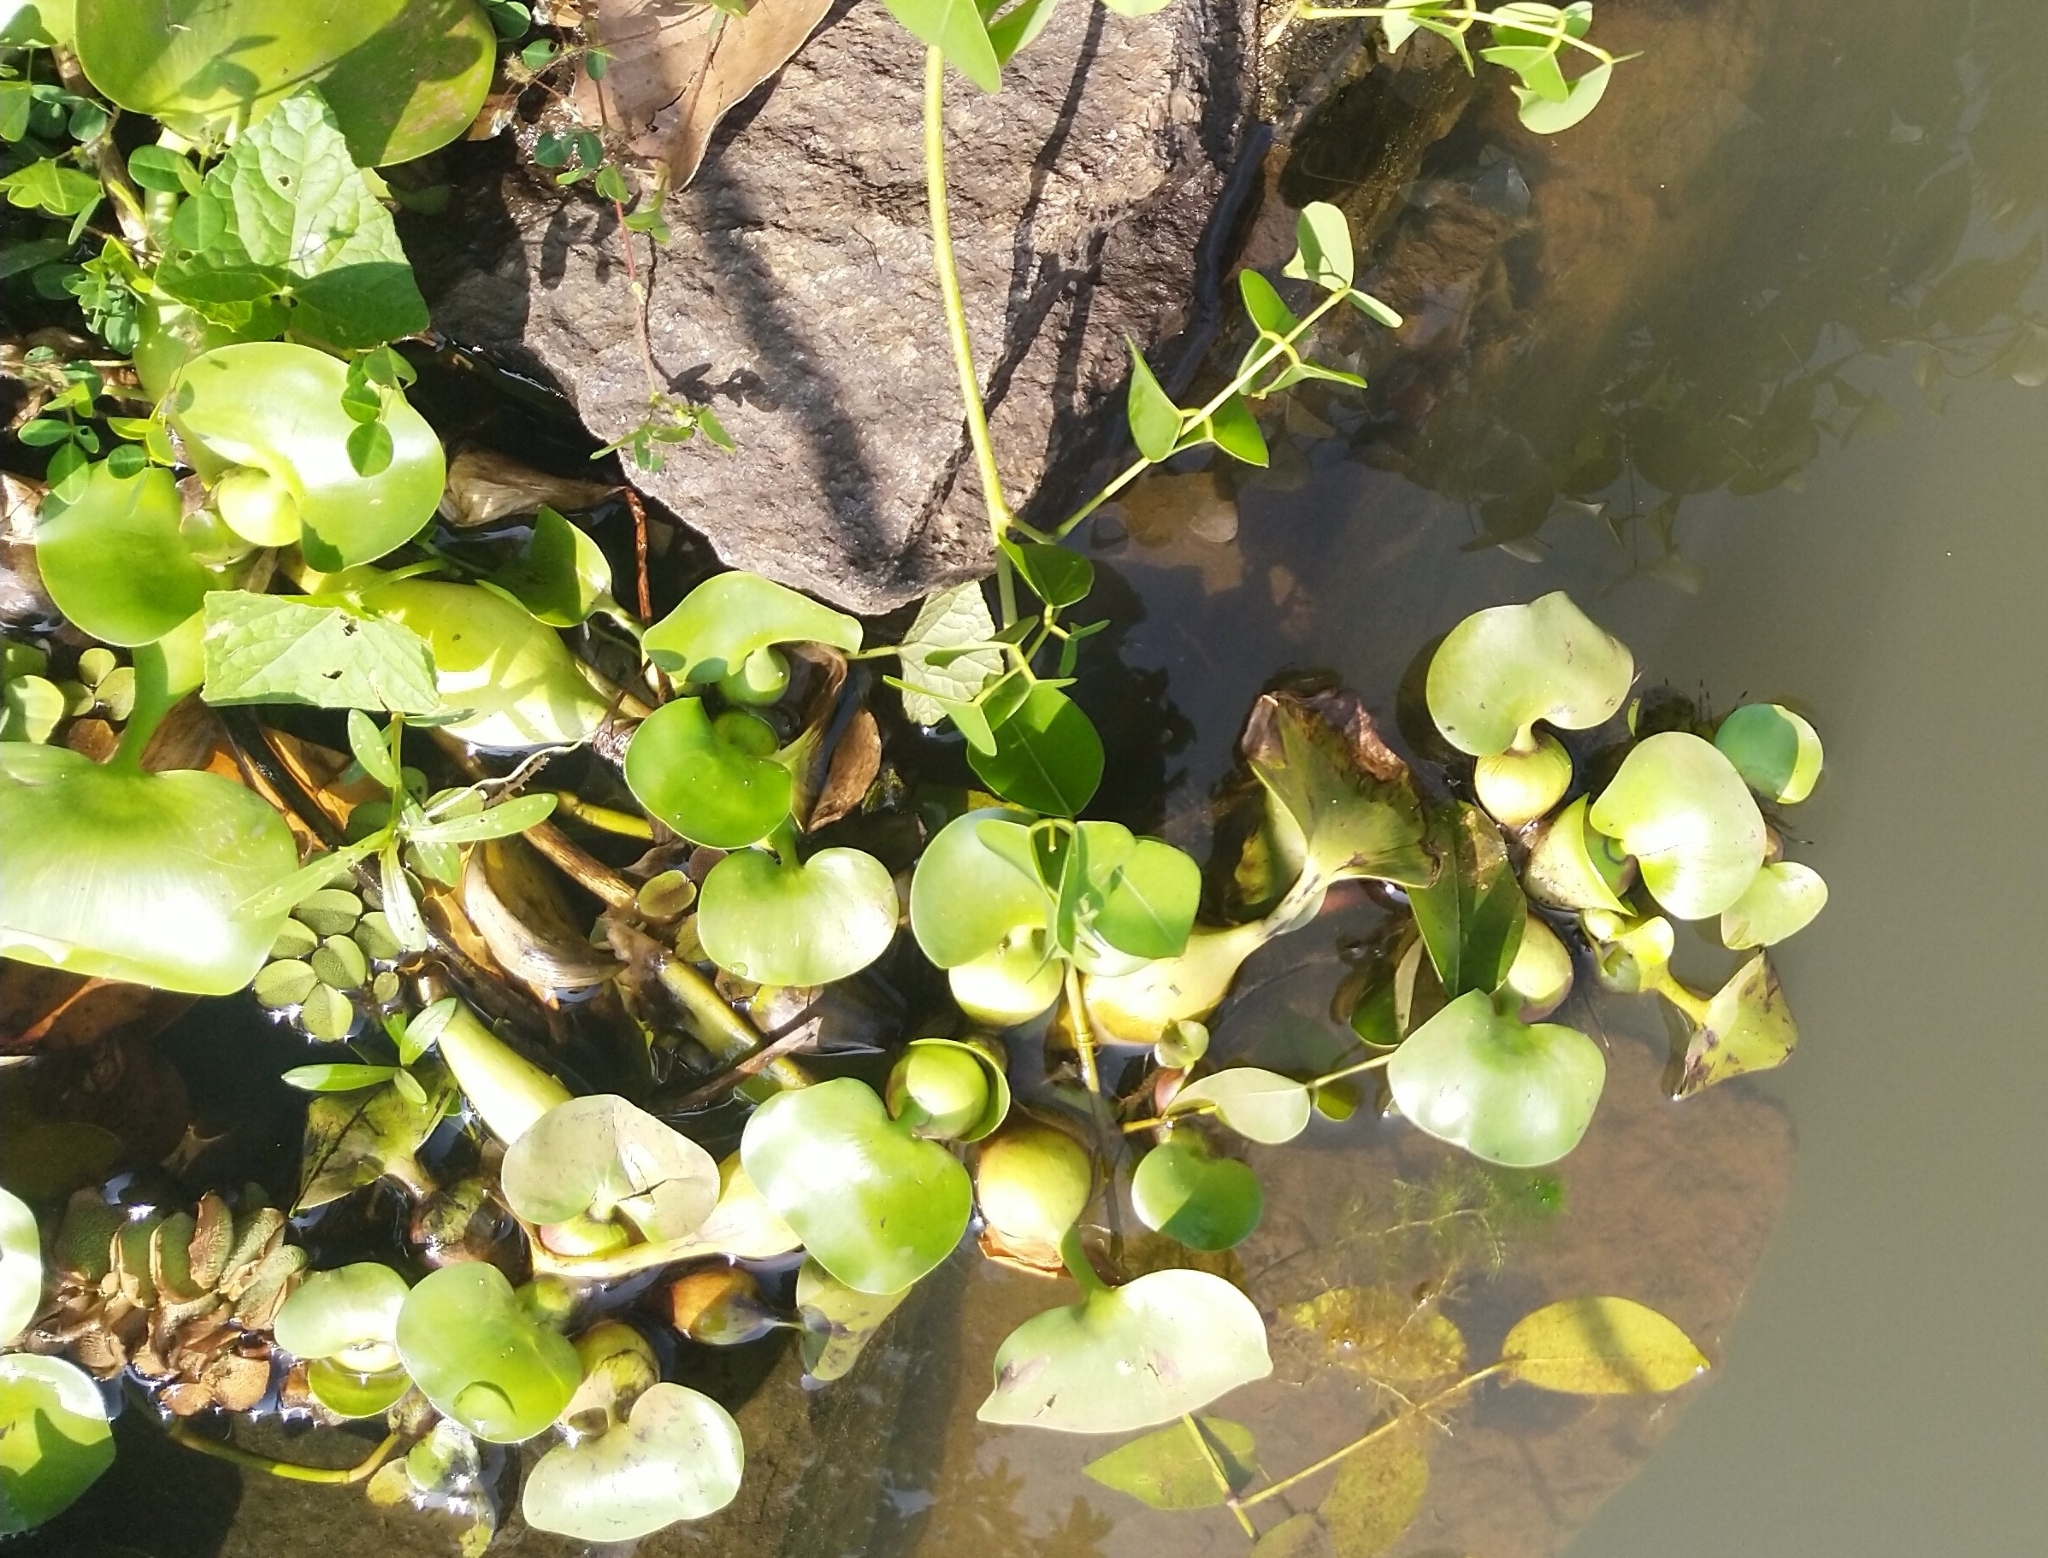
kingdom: Plantae
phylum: Tracheophyta
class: Liliopsida
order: Commelinales
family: Pontederiaceae
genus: Pontederia
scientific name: Pontederia crassipes
